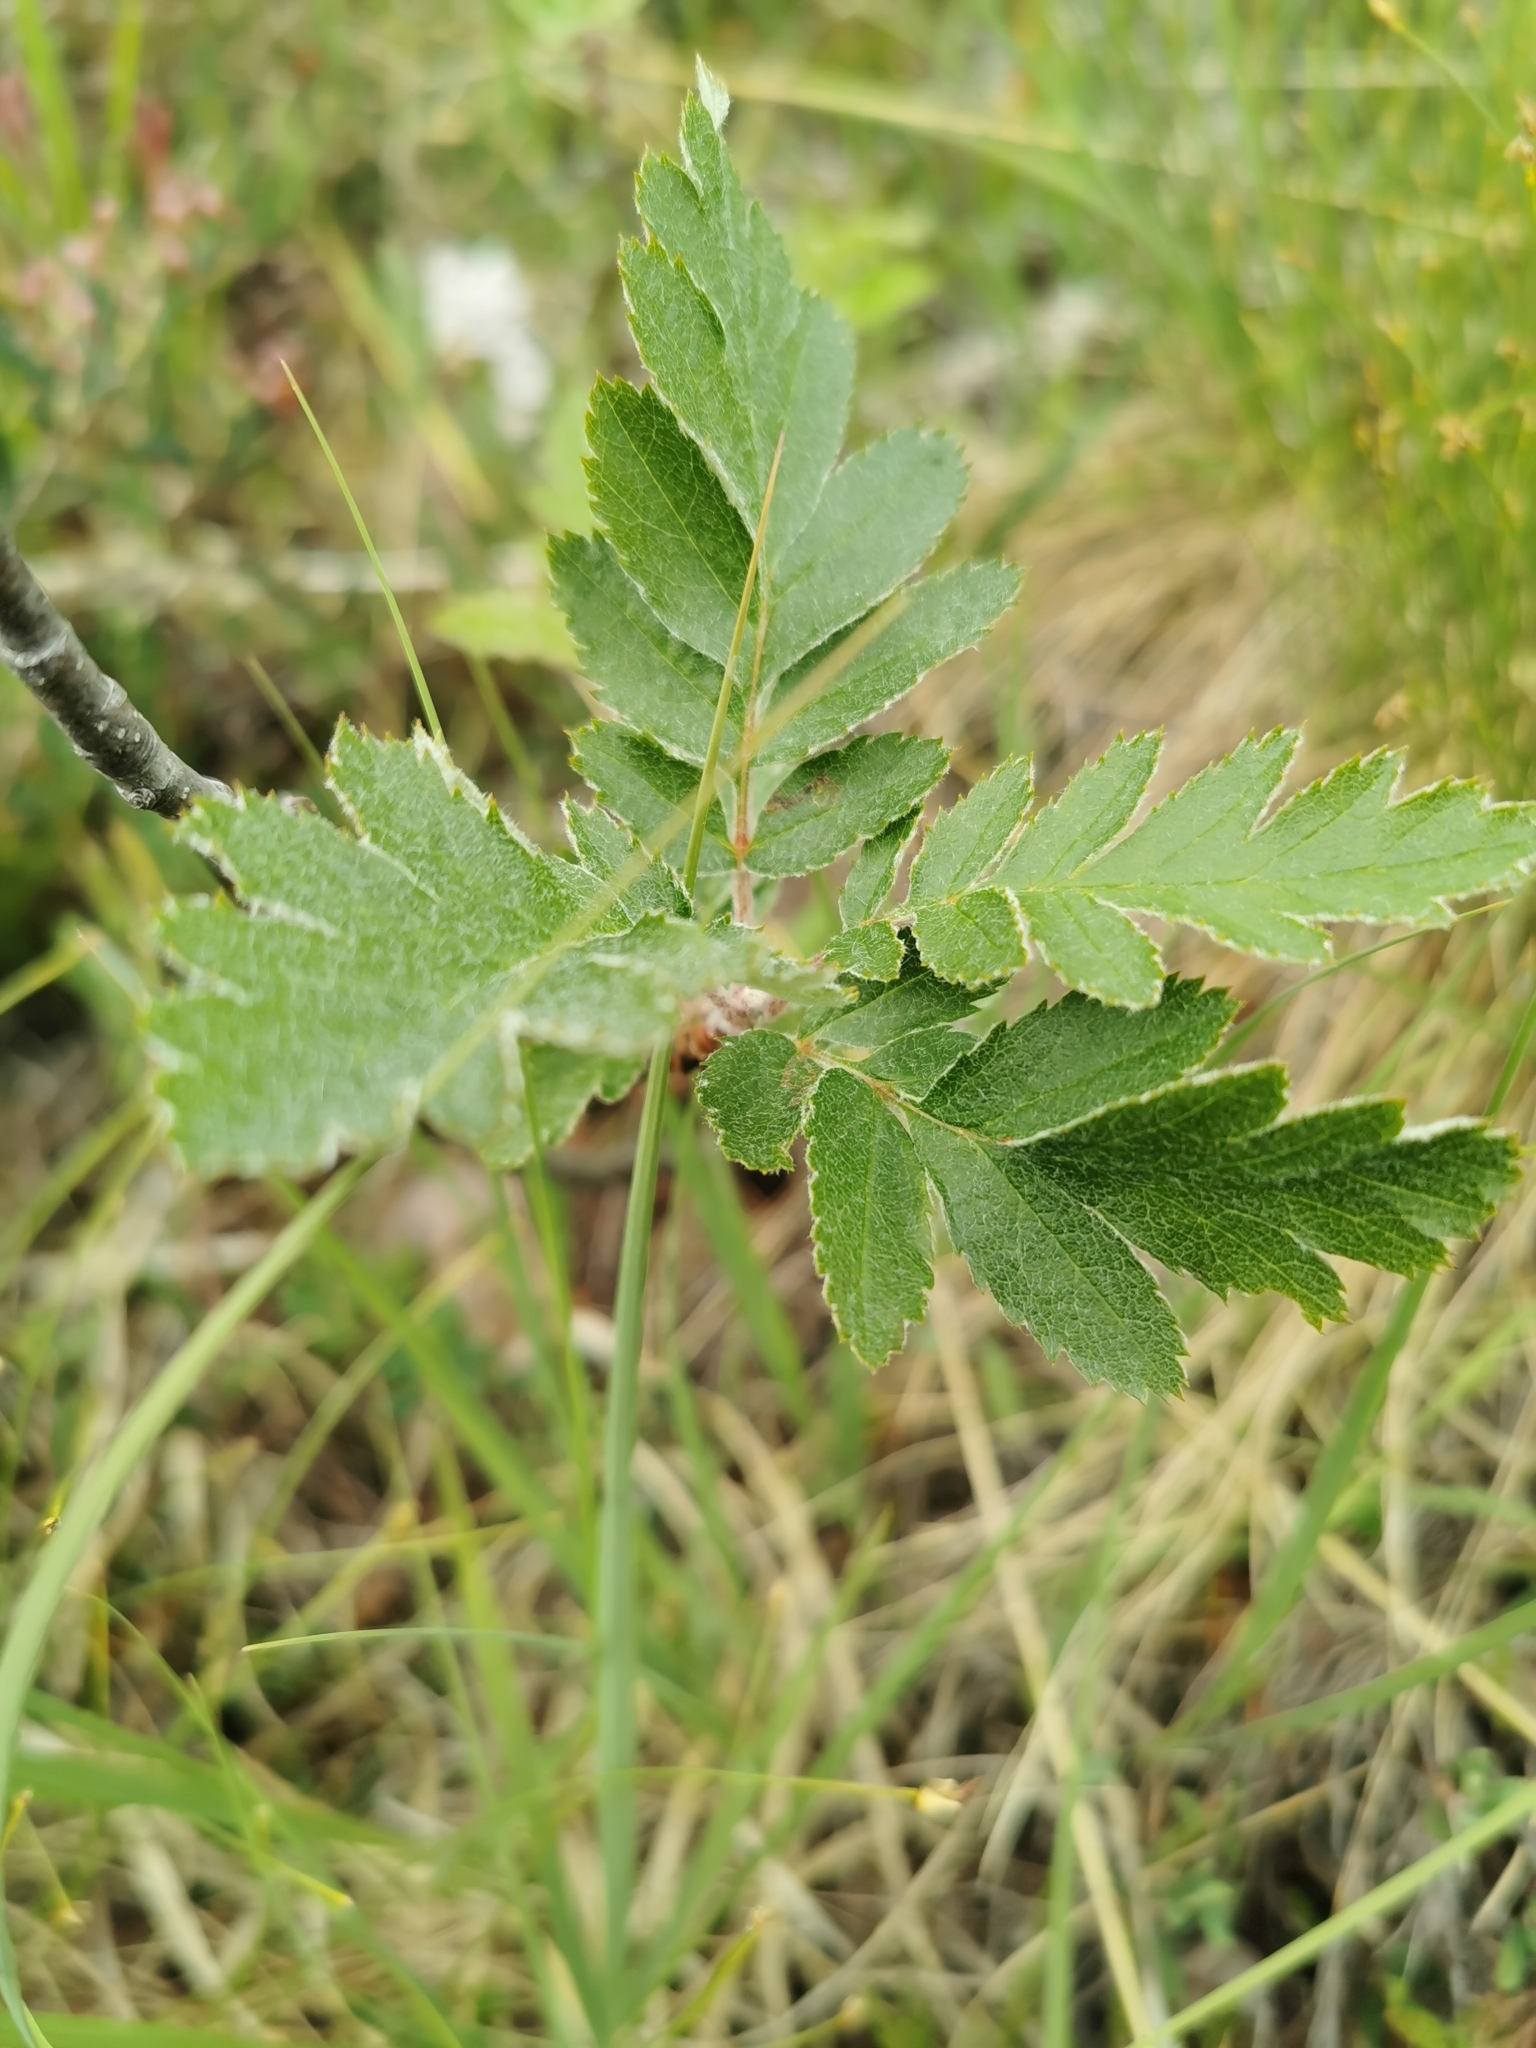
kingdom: Plantae
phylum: Tracheophyta
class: Magnoliopsida
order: Rosales
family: Rosaceae
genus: Hedlundia
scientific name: Hedlundia hybrida
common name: Swedish service-tree
